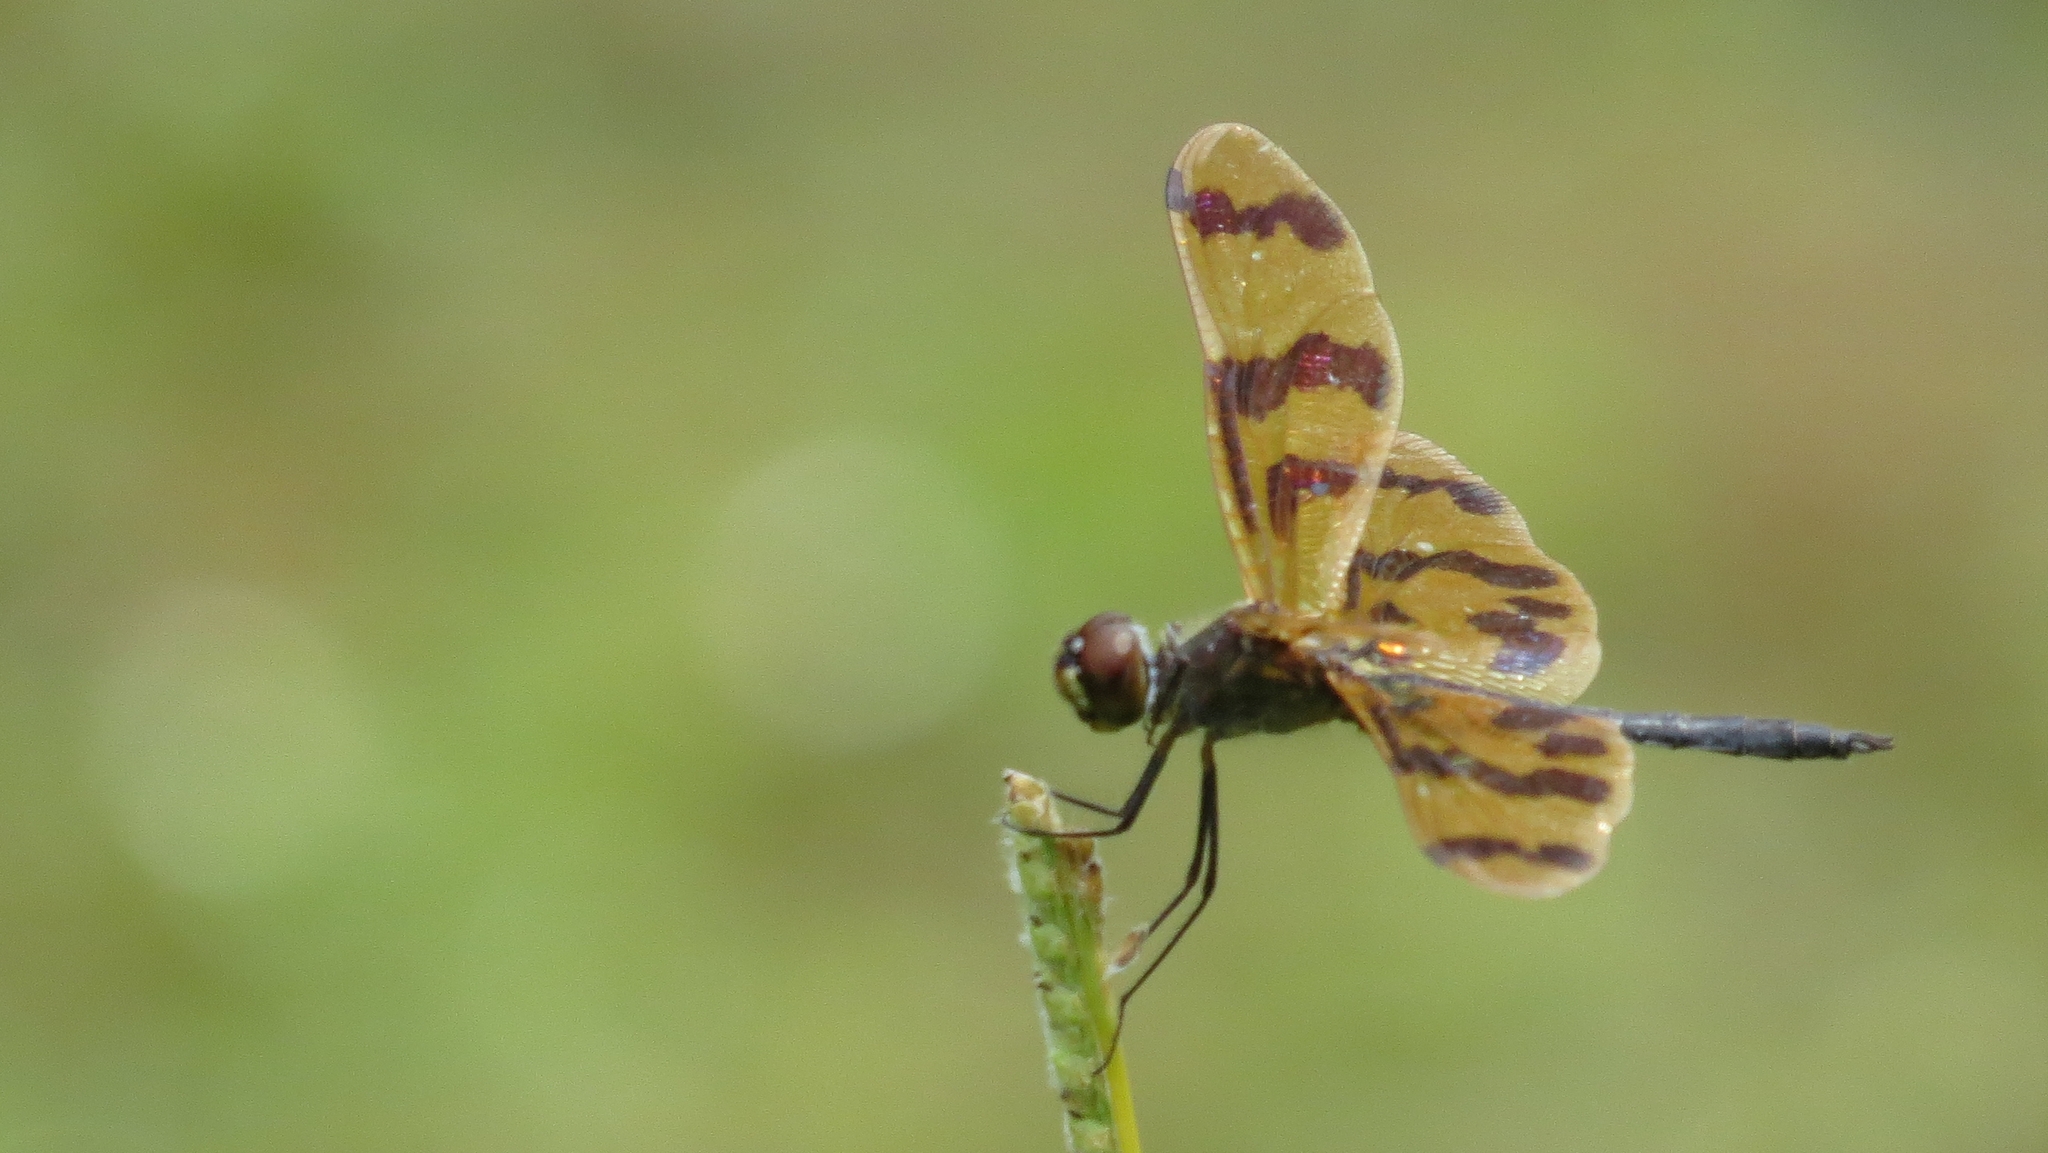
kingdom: Animalia
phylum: Arthropoda
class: Insecta
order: Odonata
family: Libellulidae
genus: Rhyothemis
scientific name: Rhyothemis graphiptera
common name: Graphic flutterer
